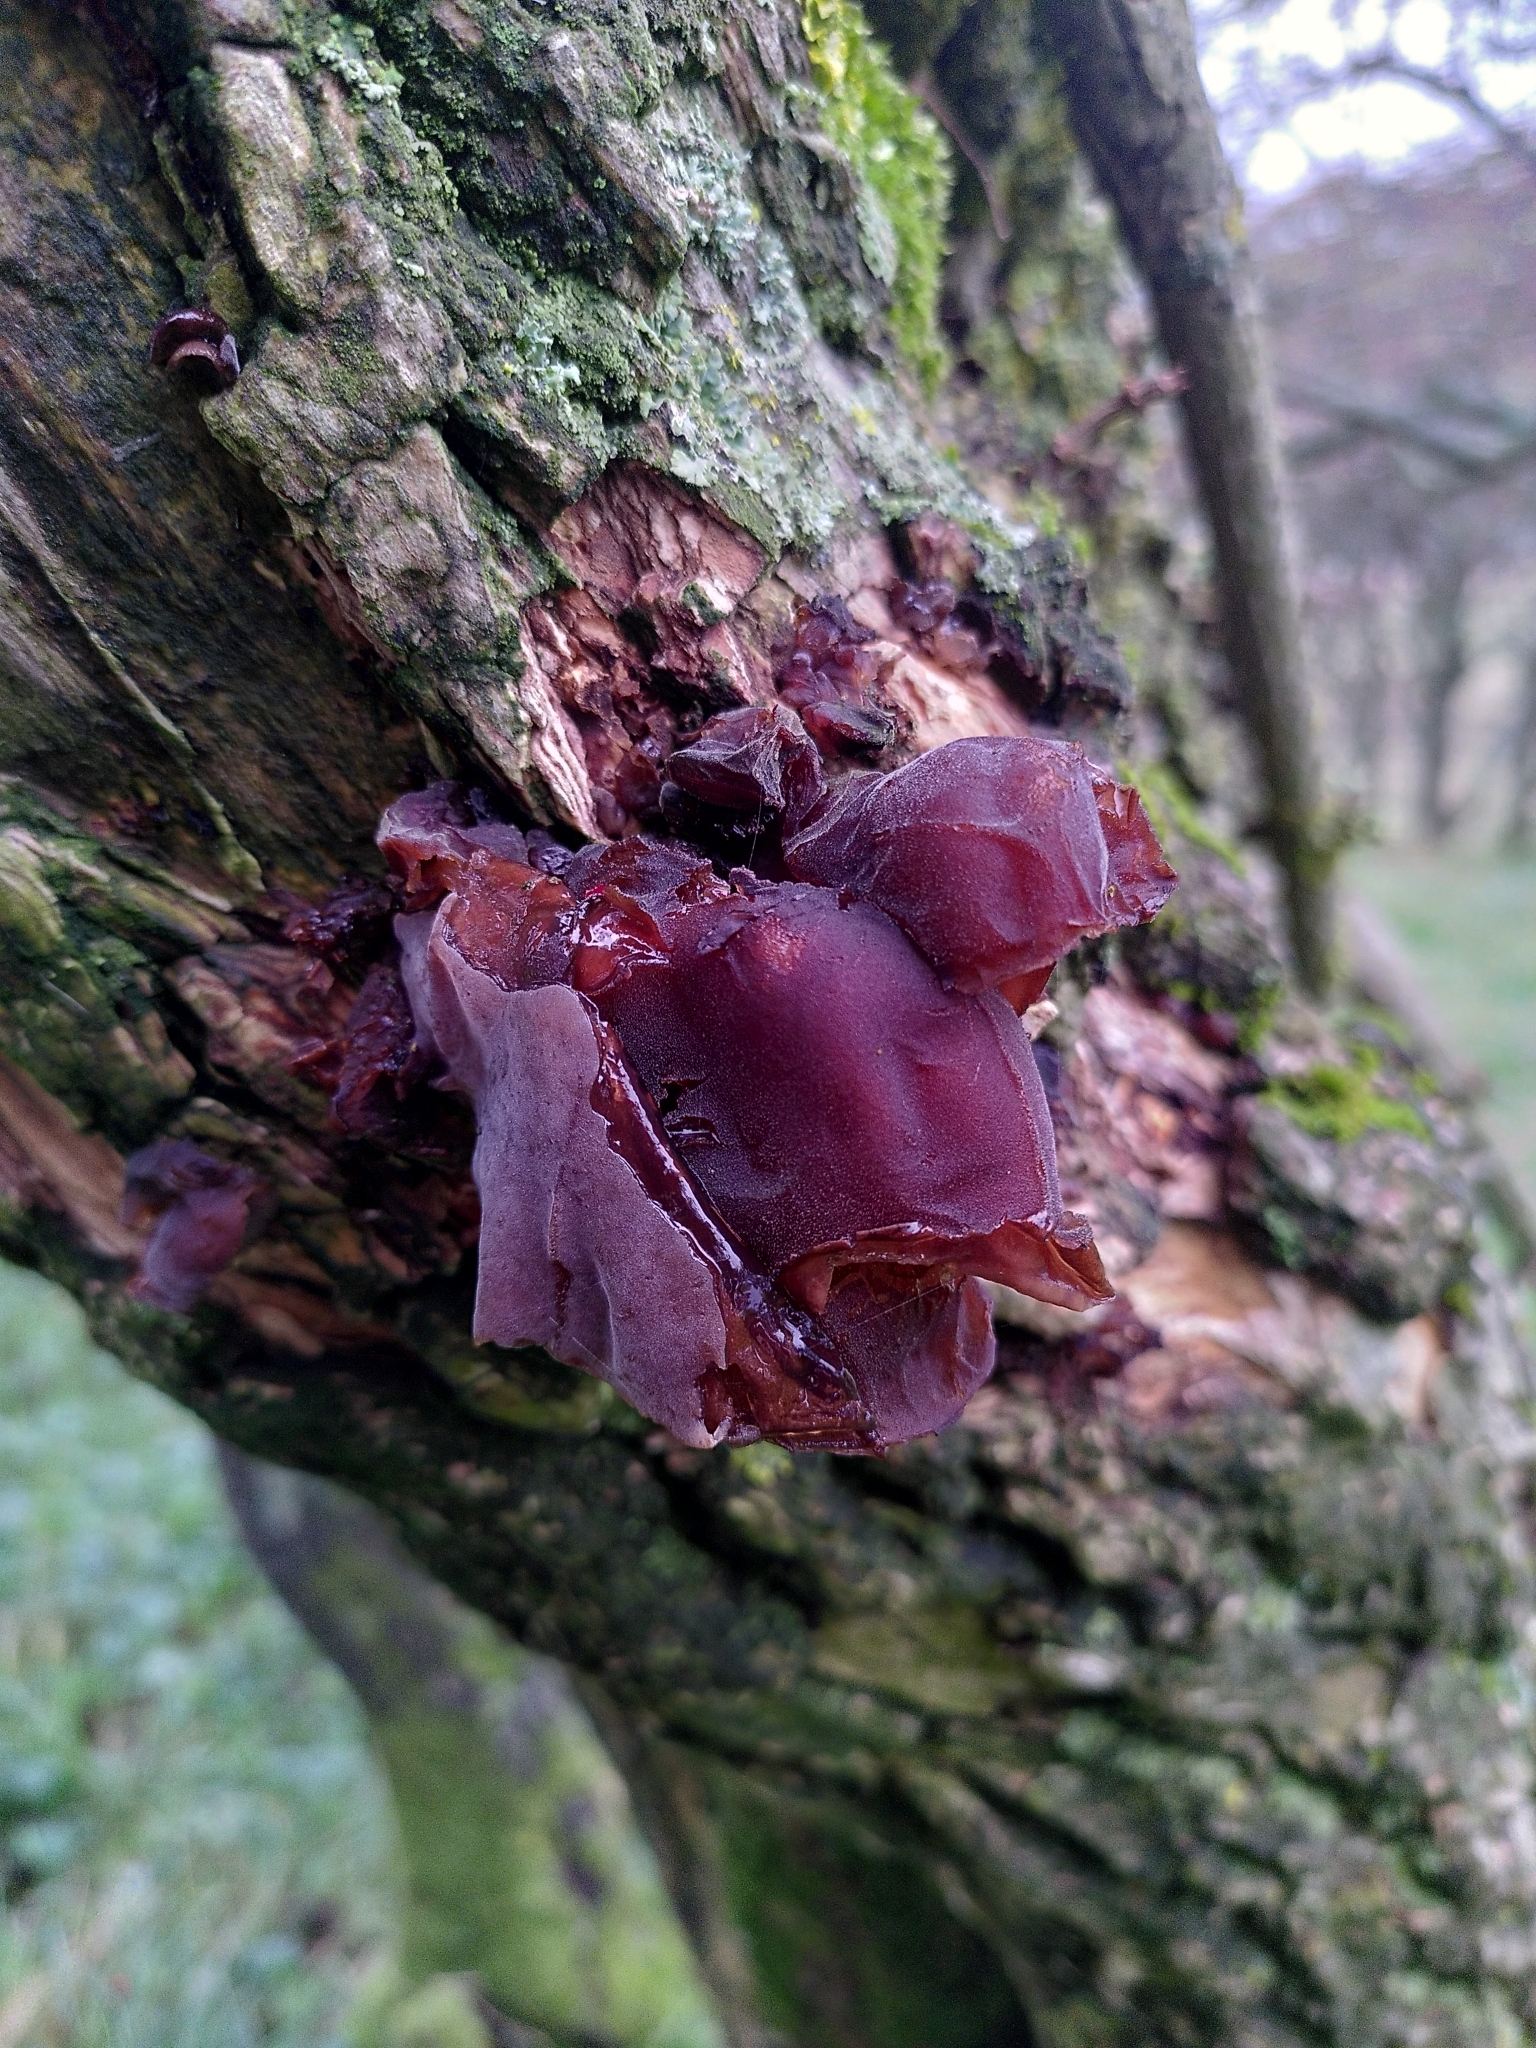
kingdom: Fungi
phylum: Basidiomycota
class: Agaricomycetes
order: Auriculariales
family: Auriculariaceae
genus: Auricularia
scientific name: Auricularia auricula-judae
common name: Jelly ear
